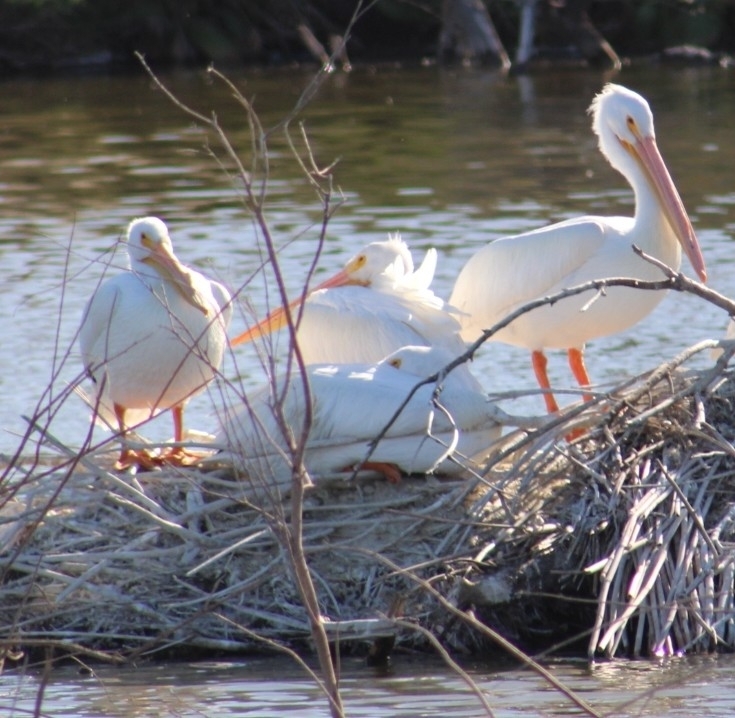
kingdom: Animalia
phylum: Chordata
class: Aves
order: Pelecaniformes
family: Pelecanidae
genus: Pelecanus
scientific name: Pelecanus erythrorhynchos
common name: American white pelican
